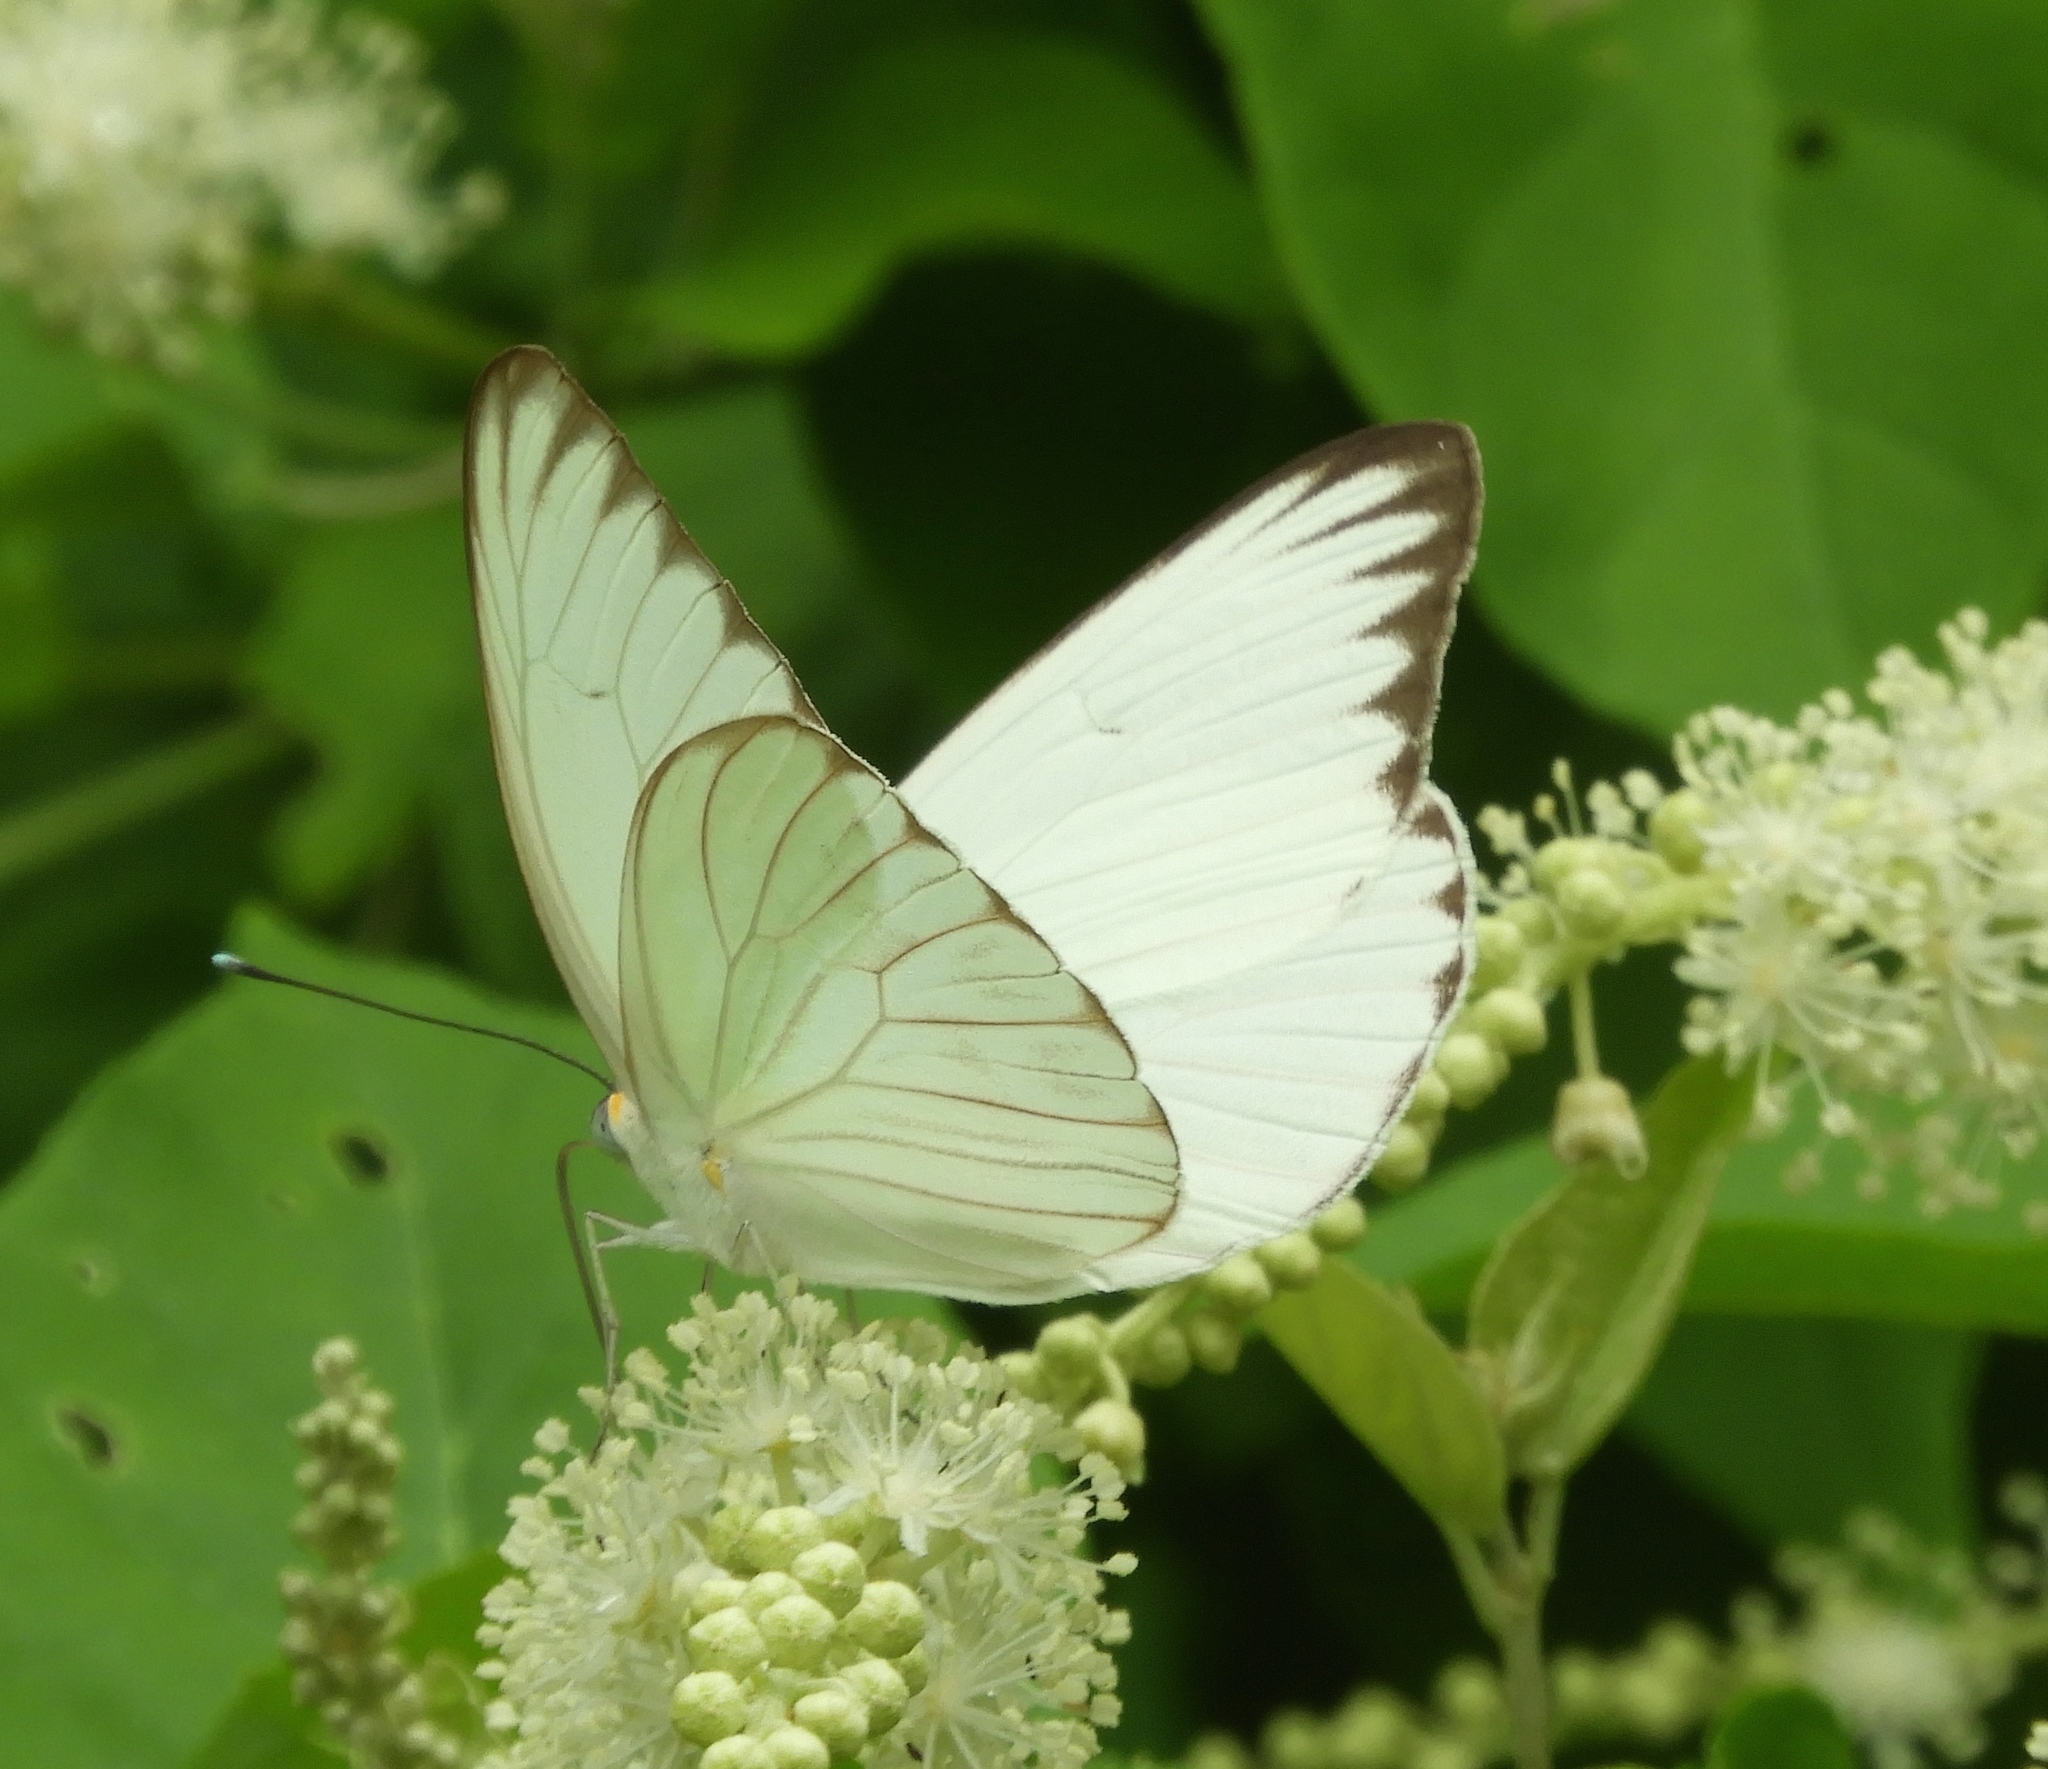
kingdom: Animalia
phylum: Arthropoda
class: Insecta
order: Lepidoptera
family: Pieridae
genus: Ascia
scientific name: Ascia monuste
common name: Great southern white
